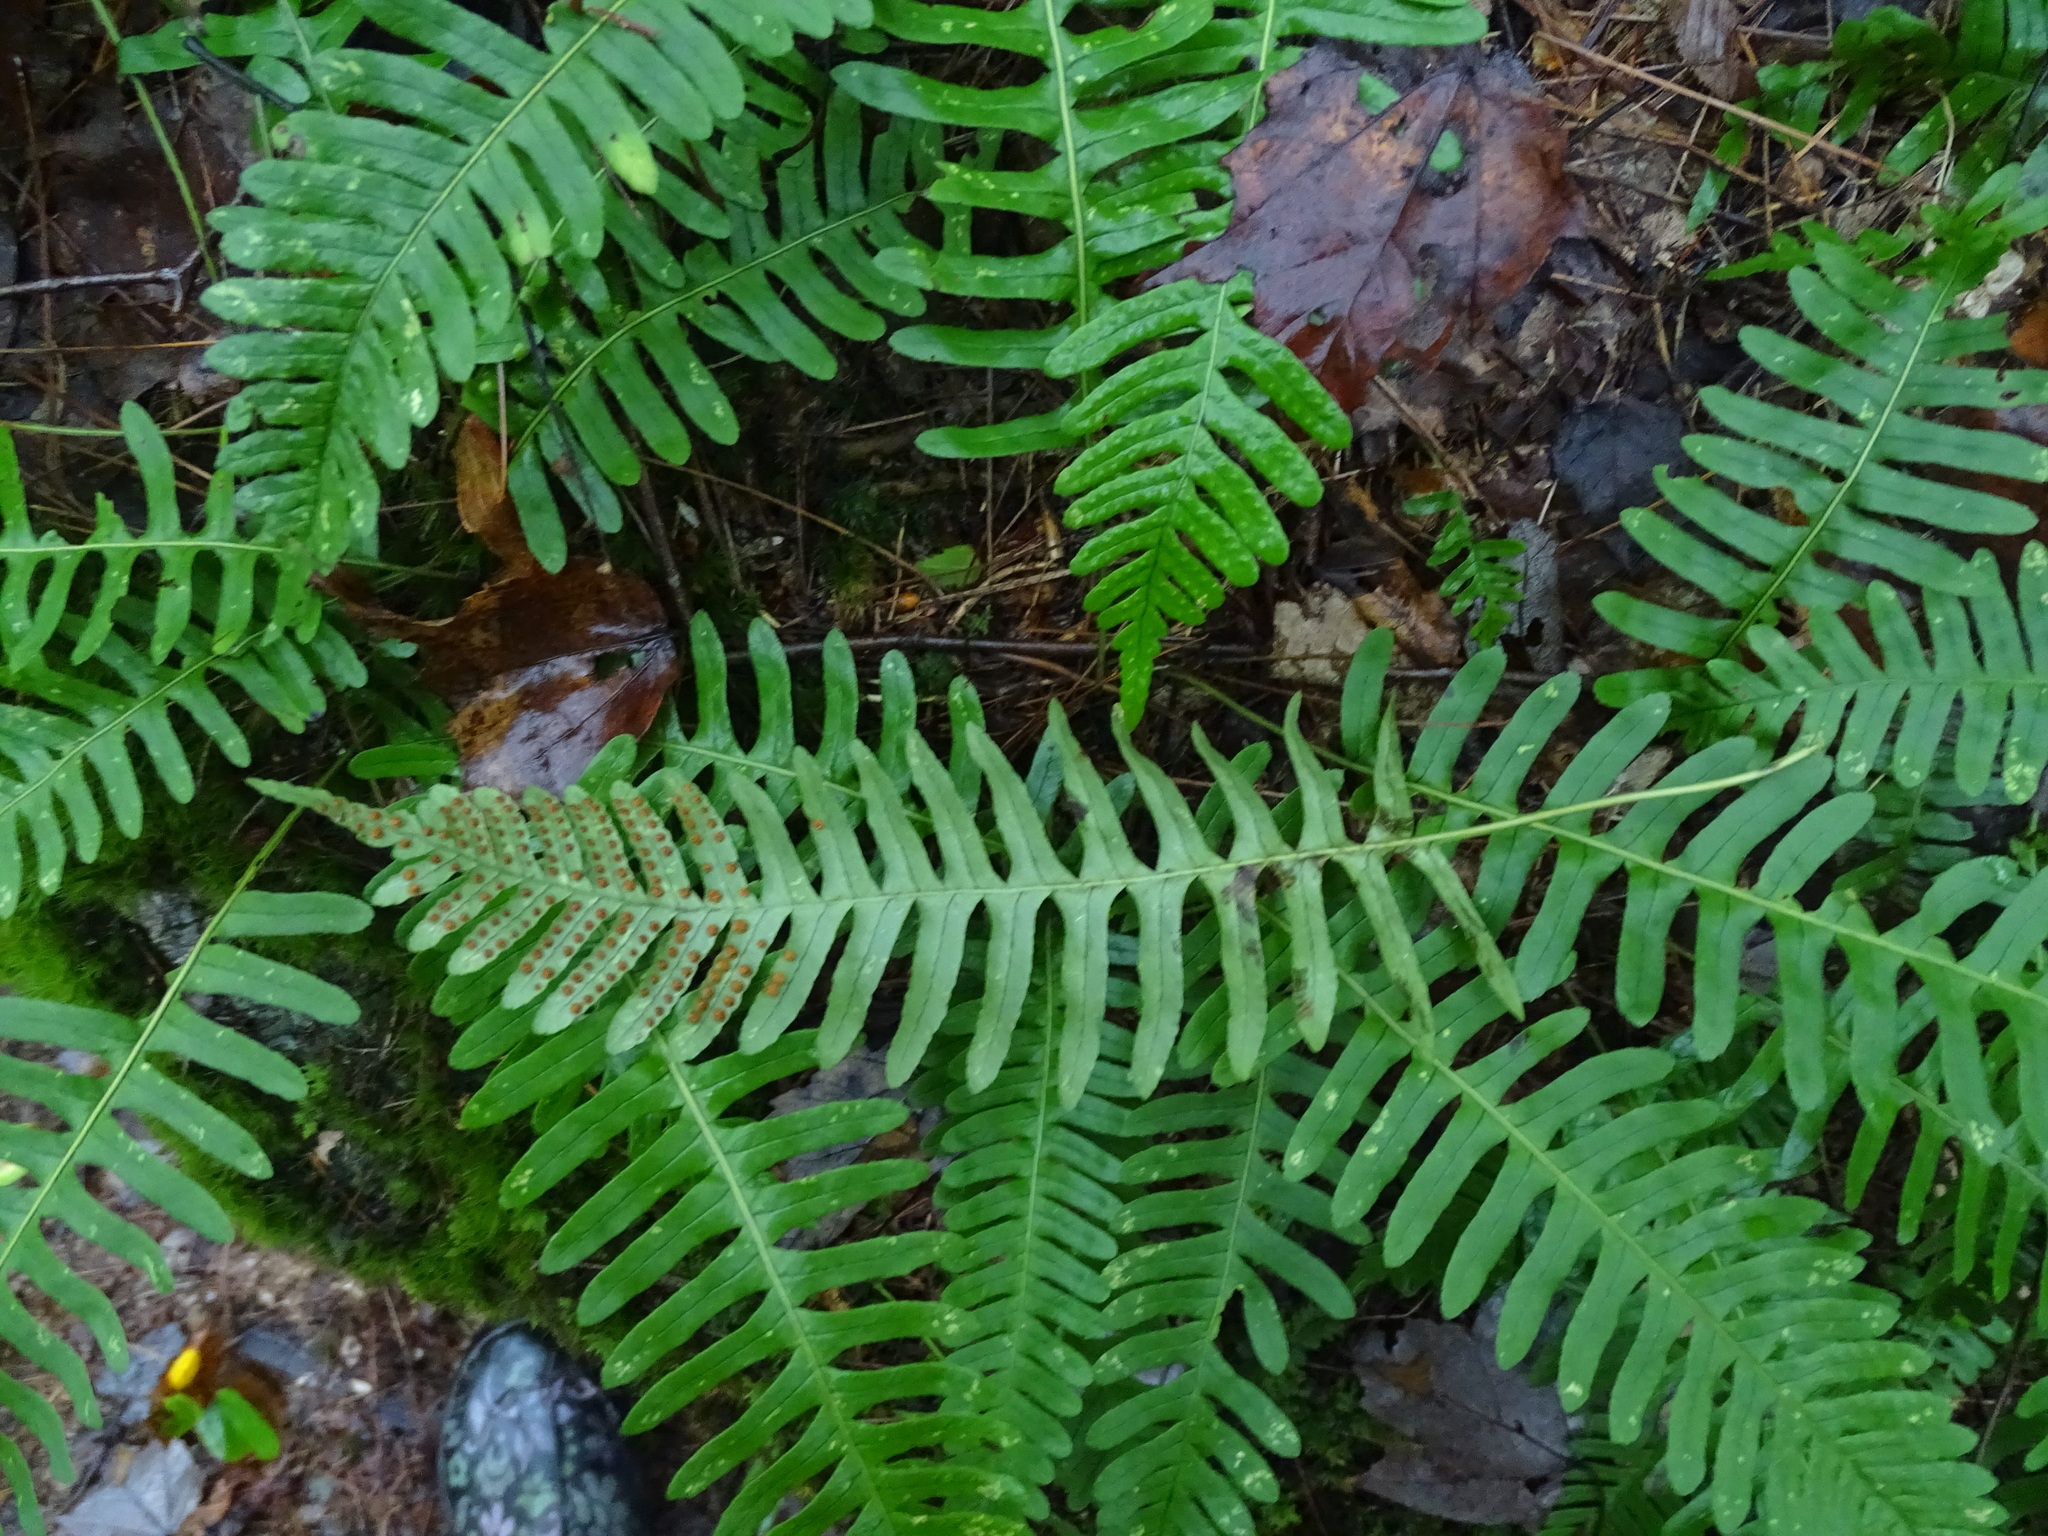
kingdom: Plantae
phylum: Tracheophyta
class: Polypodiopsida
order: Polypodiales
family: Polypodiaceae
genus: Polypodium
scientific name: Polypodium virginianum
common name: American wall fern
